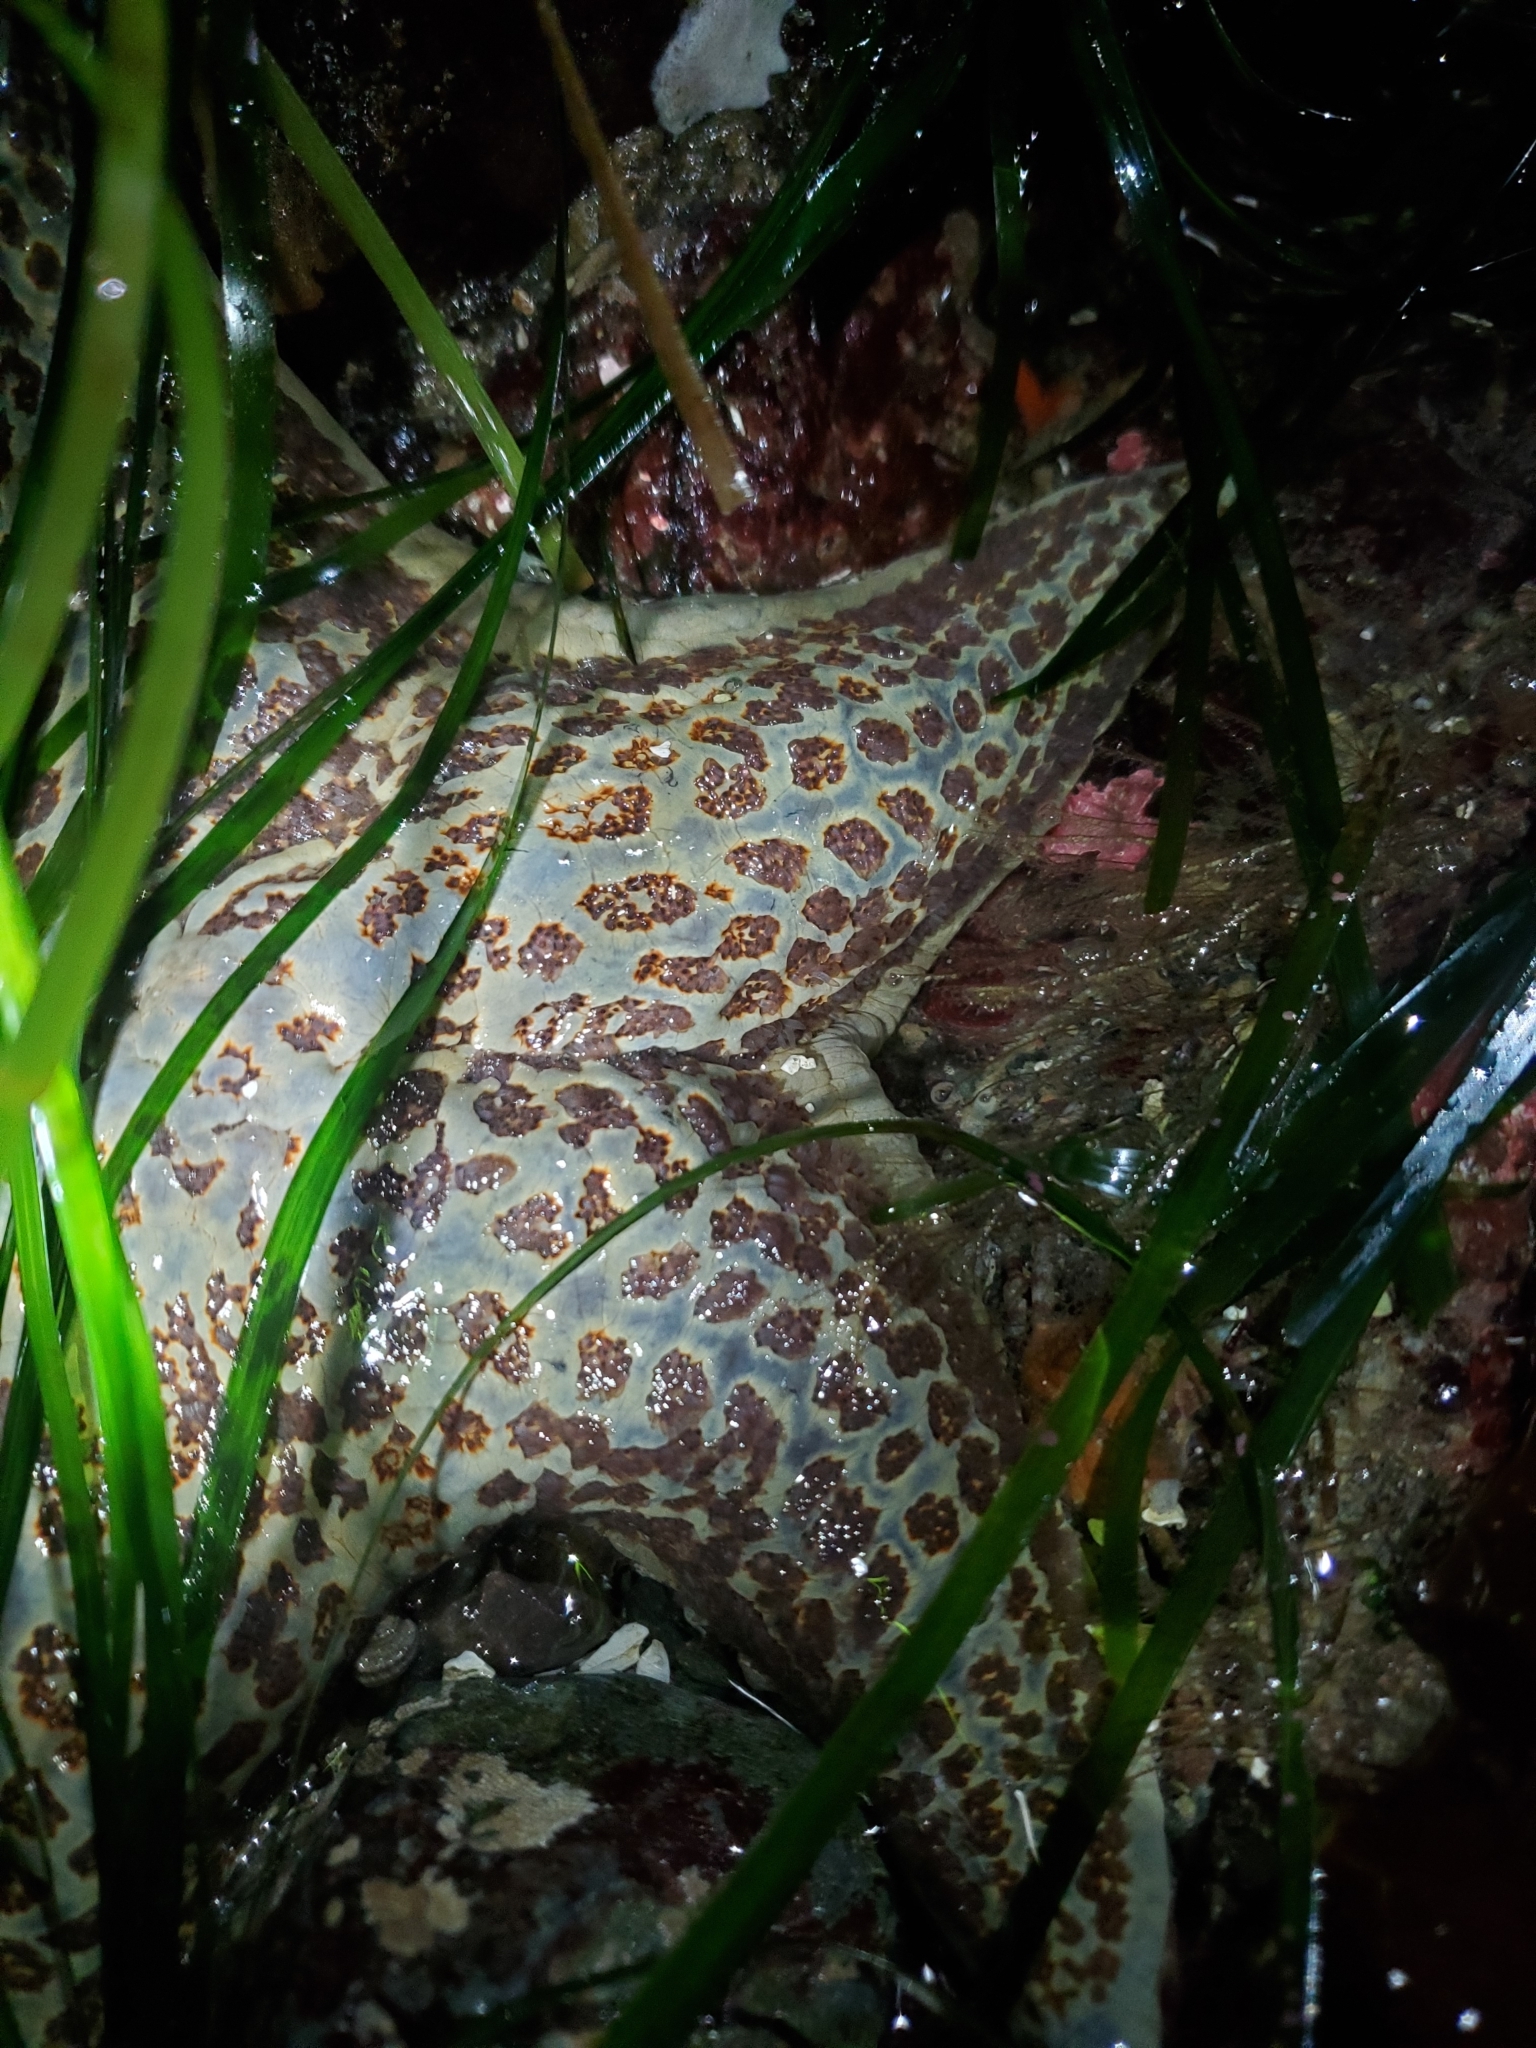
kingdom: Animalia
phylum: Echinodermata
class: Asteroidea
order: Valvatida
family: Asteropseidae
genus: Dermasterias
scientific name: Dermasterias imbricata
